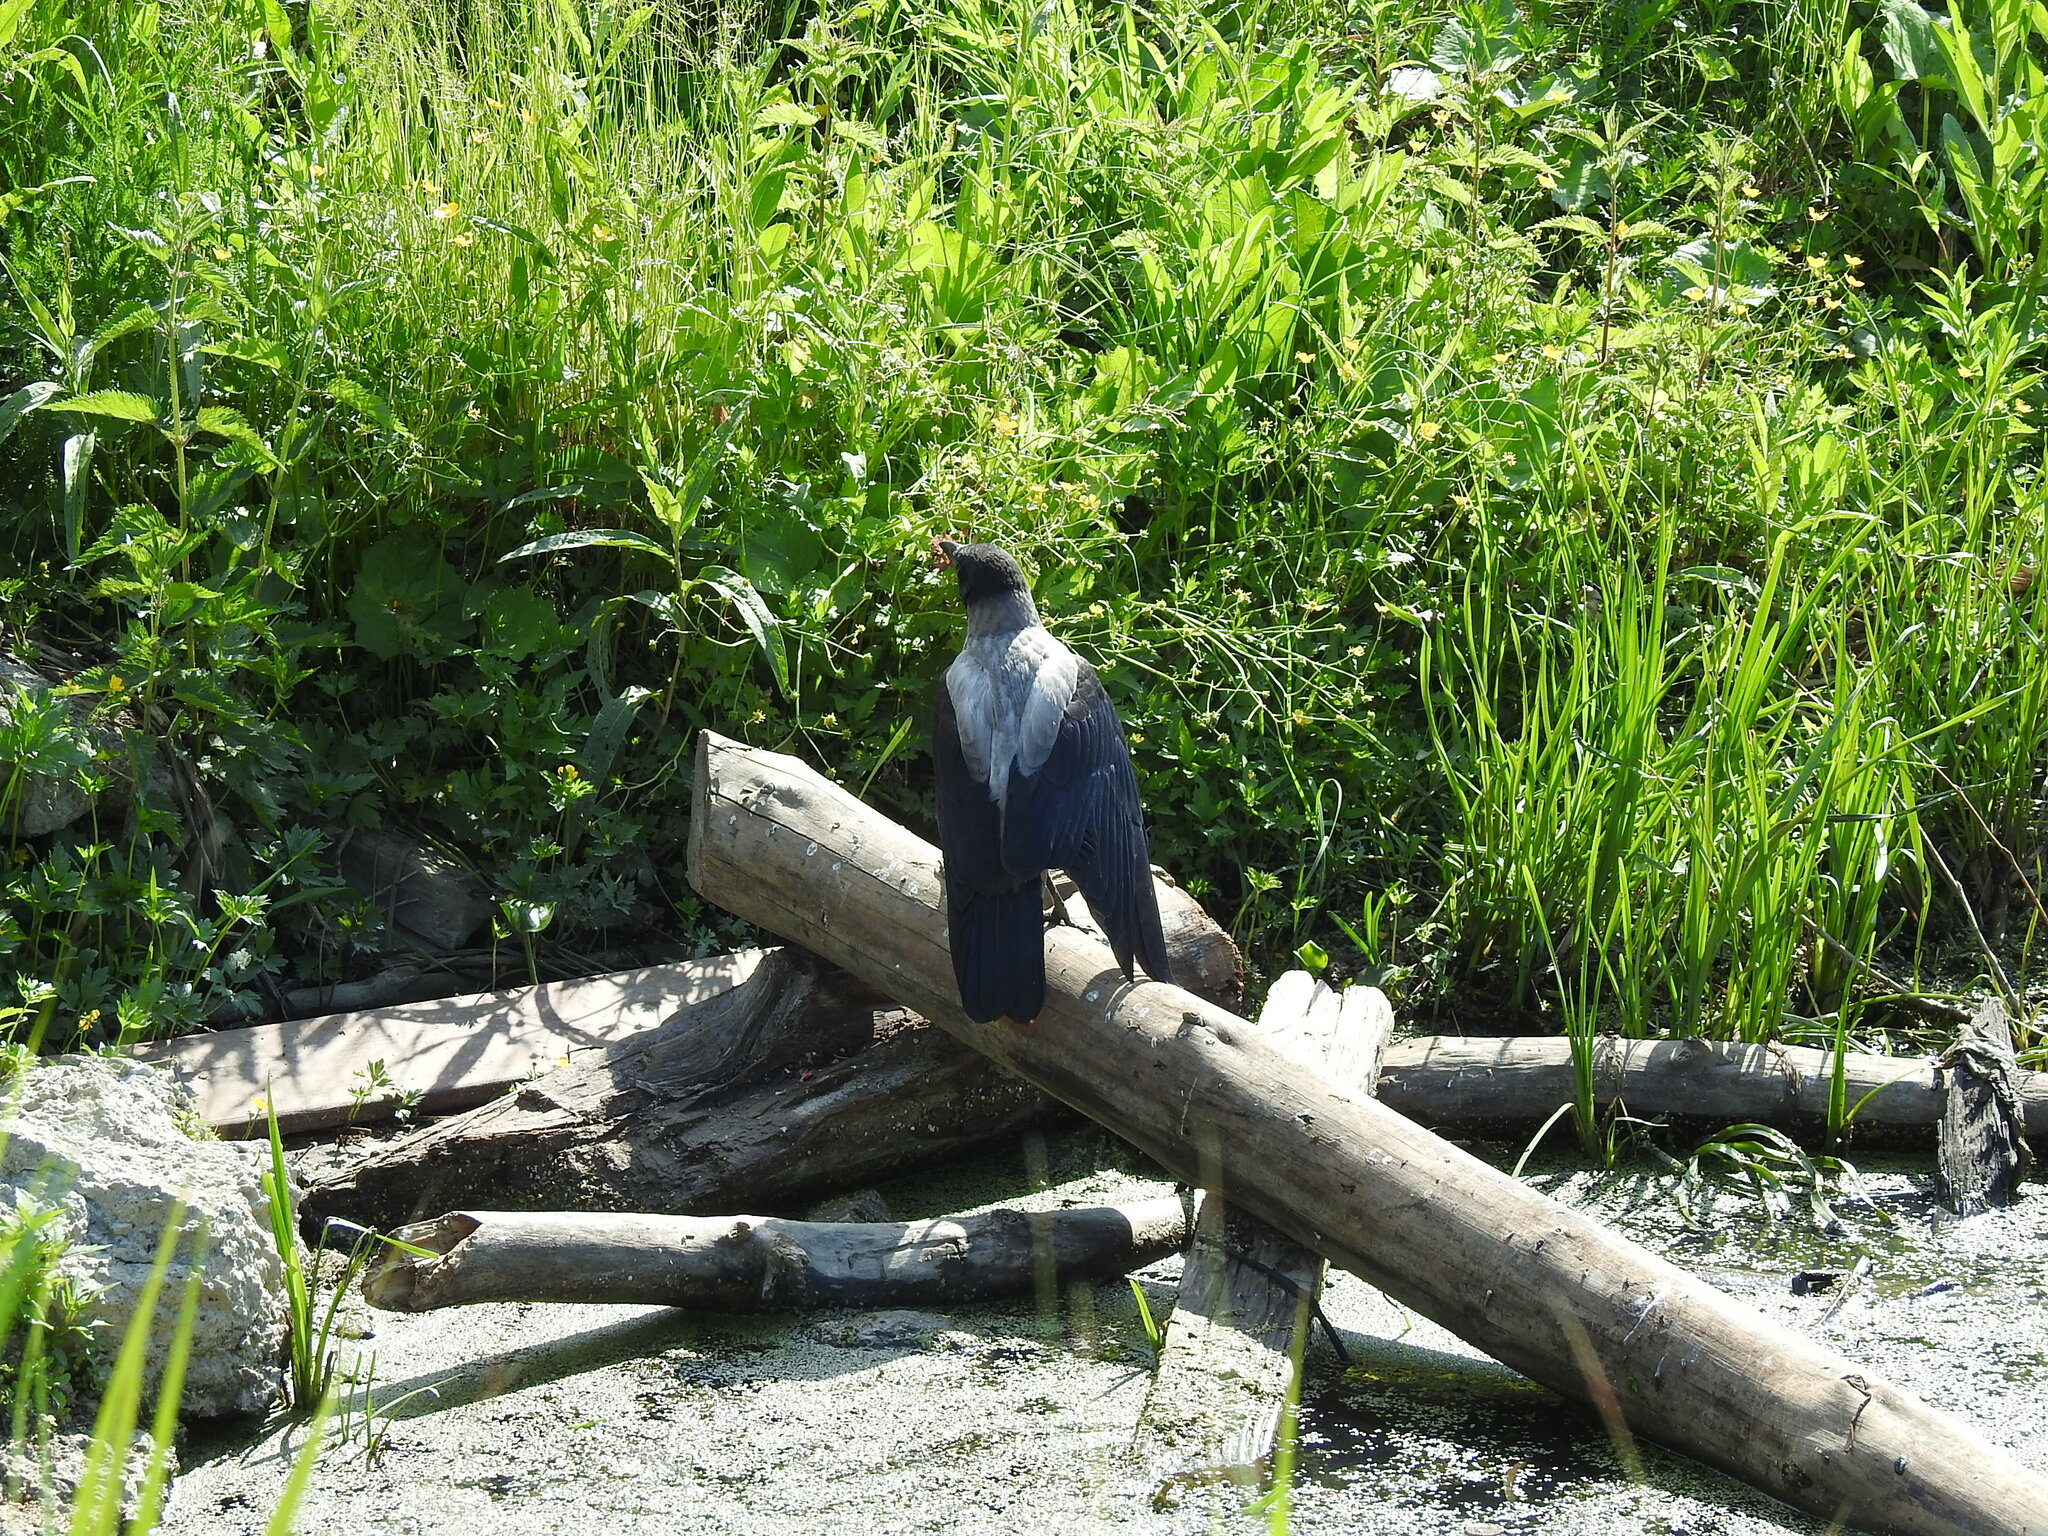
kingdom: Animalia
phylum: Chordata
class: Aves
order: Passeriformes
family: Corvidae
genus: Corvus
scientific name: Corvus cornix
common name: Hooded crow
